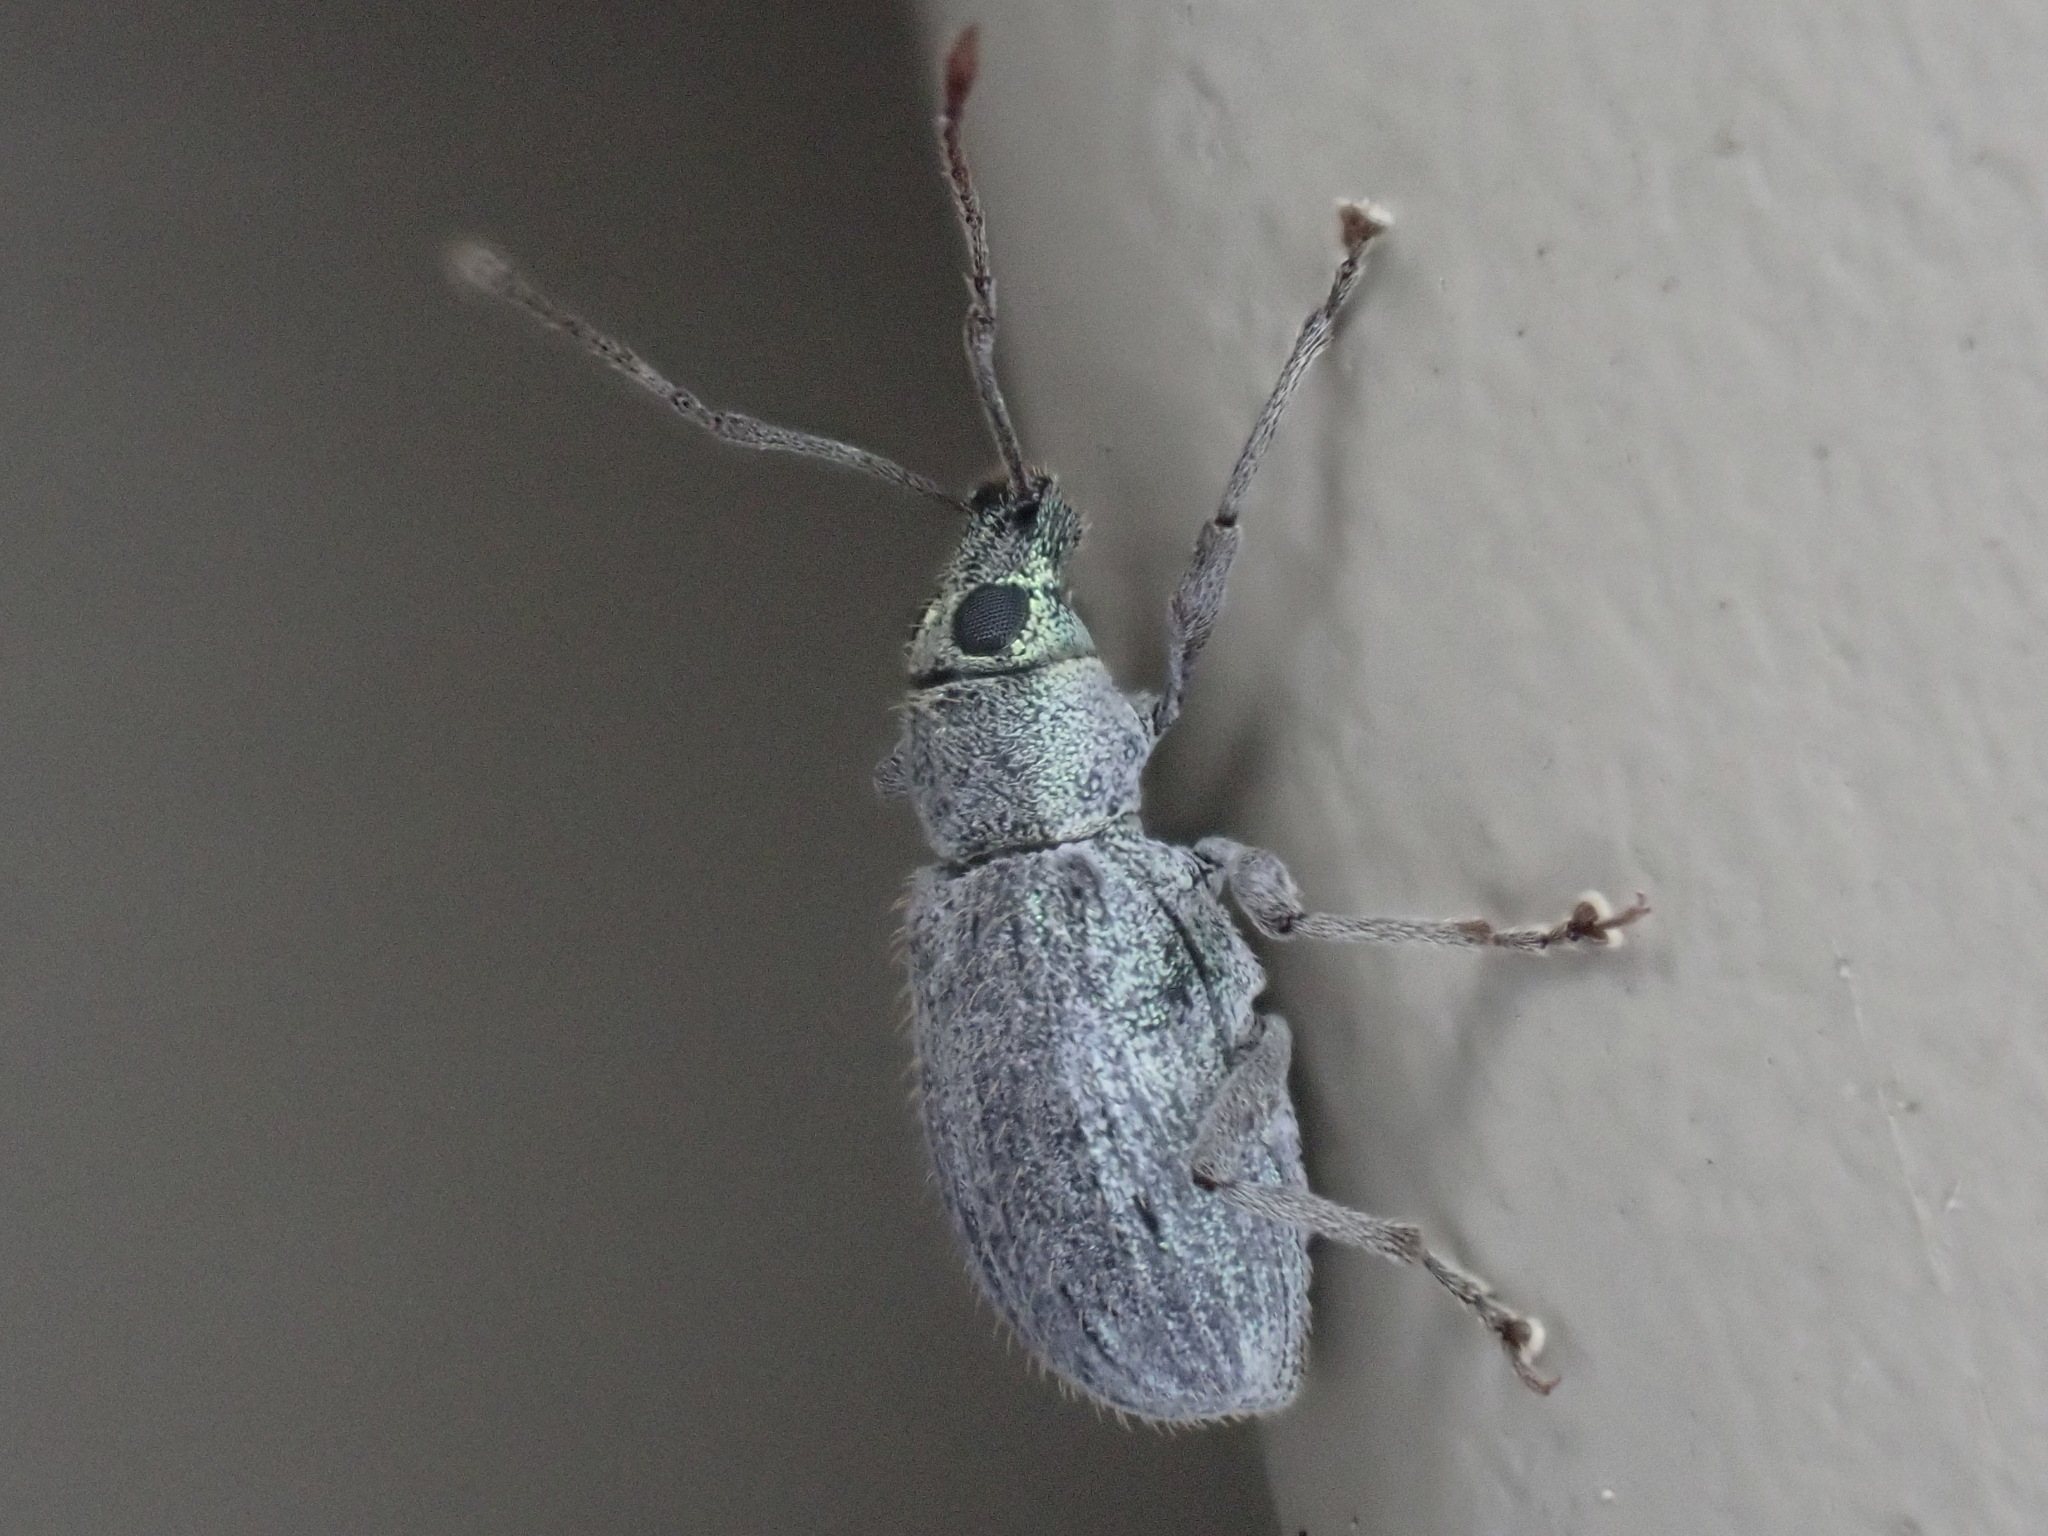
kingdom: Animalia
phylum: Arthropoda
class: Insecta
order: Coleoptera
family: Curculionidae
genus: Cyrtepistomus
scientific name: Cyrtepistomus castaneus
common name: Weevil
